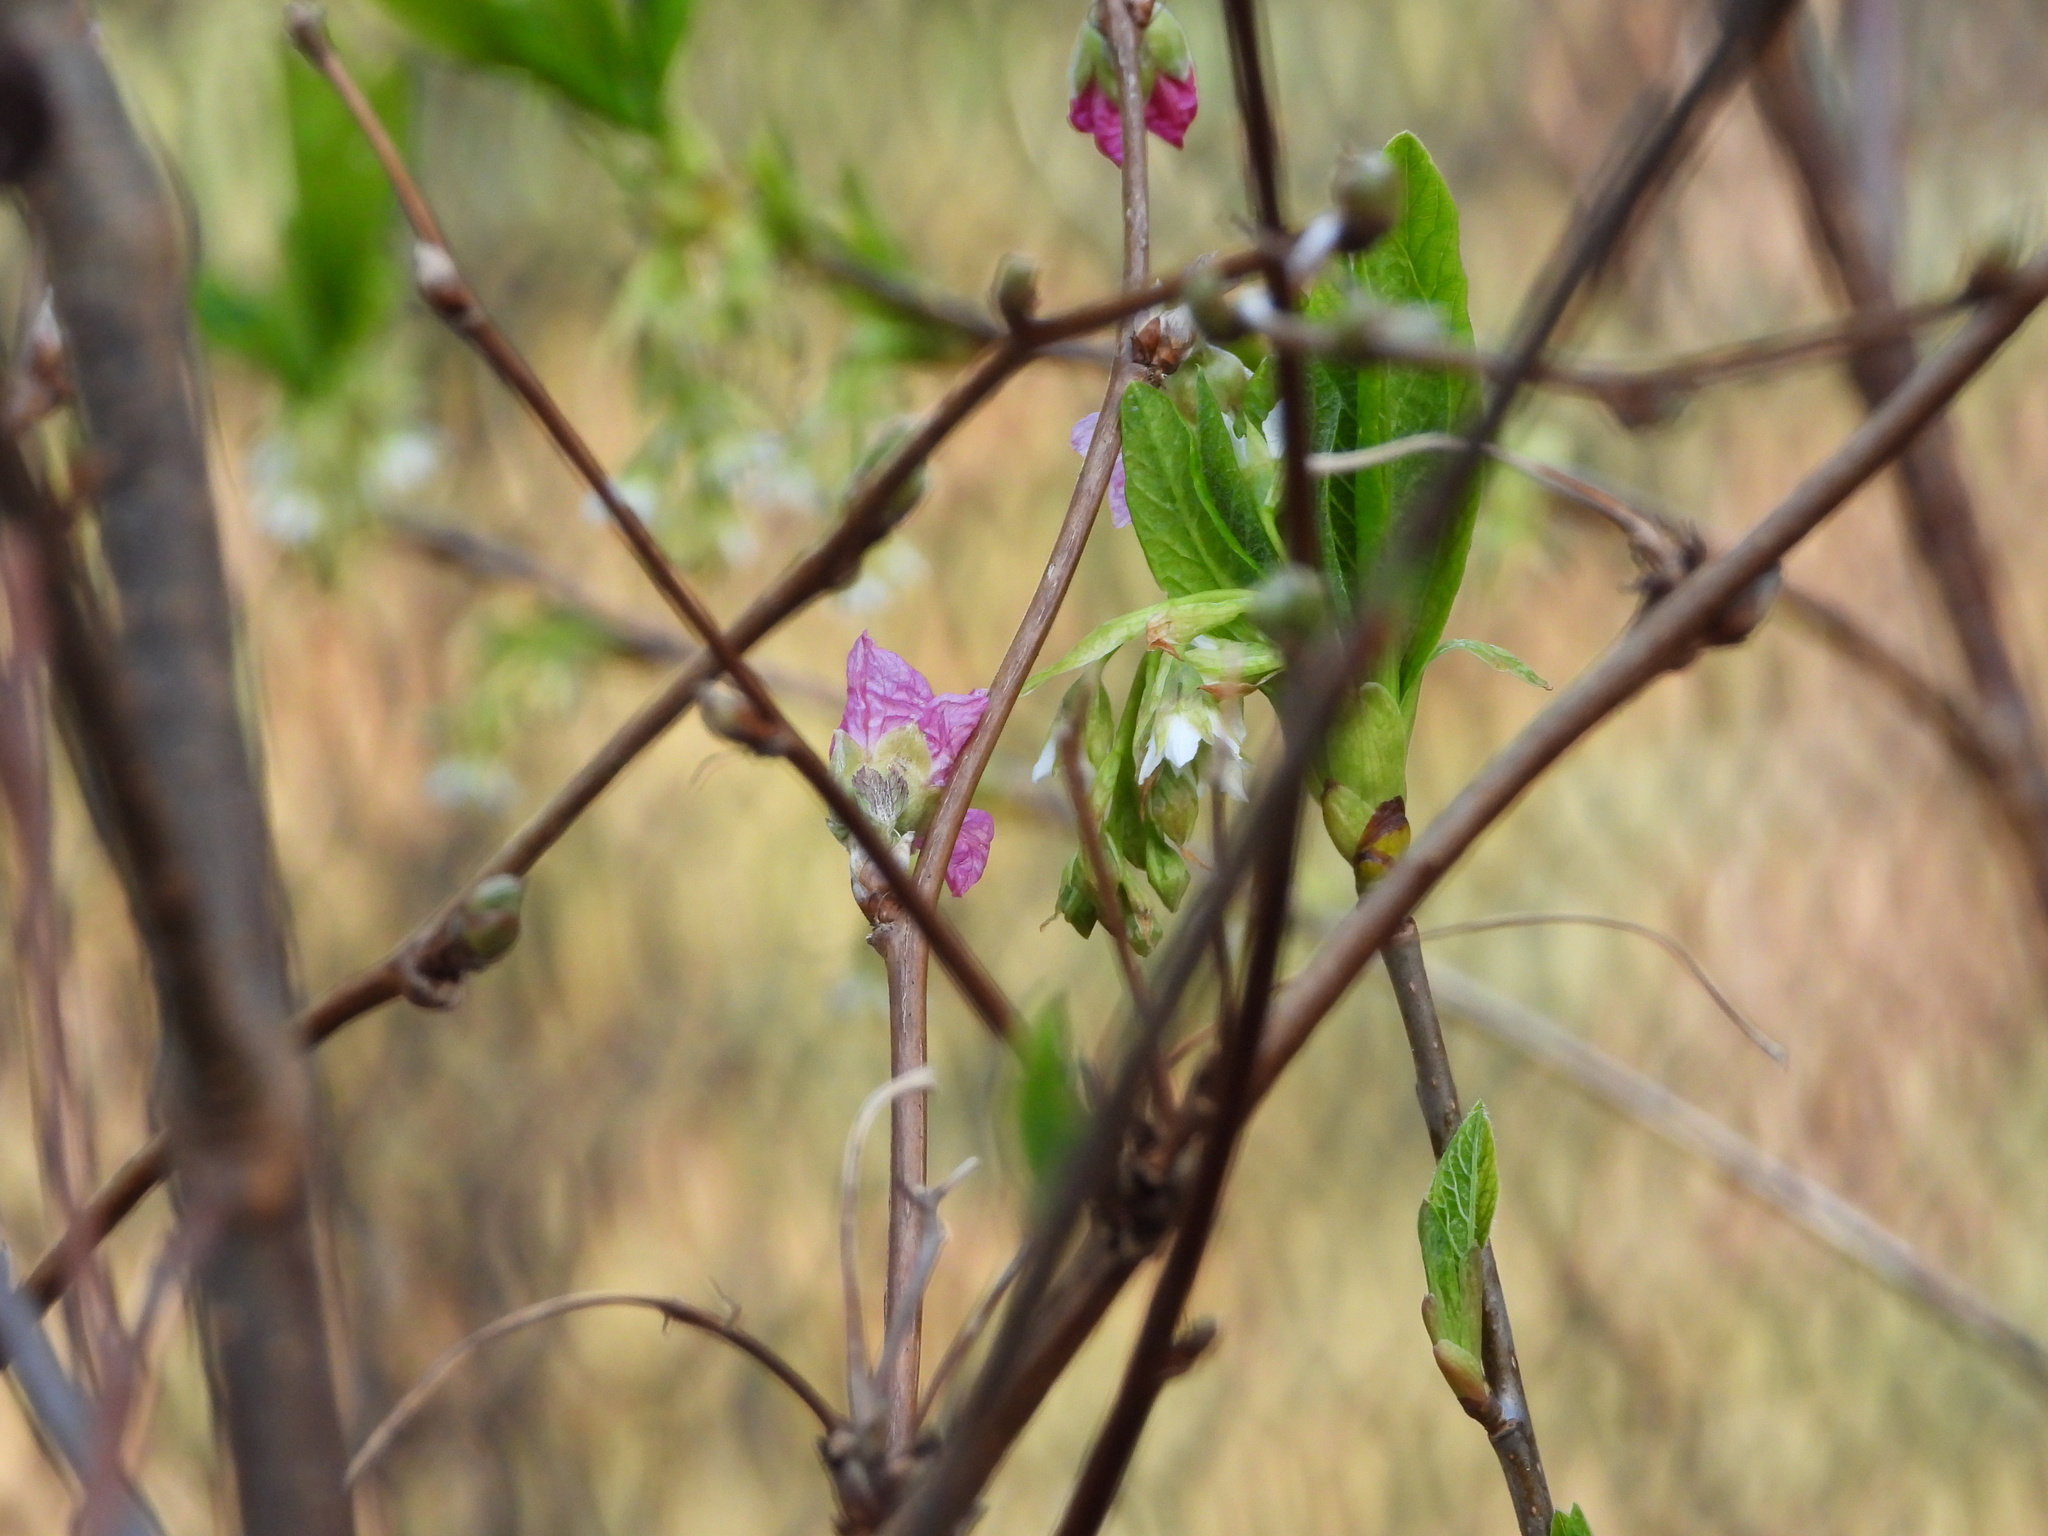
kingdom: Plantae
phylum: Tracheophyta
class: Magnoliopsida
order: Rosales
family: Rosaceae
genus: Oemleria
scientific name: Oemleria cerasiformis
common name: Osoberry
